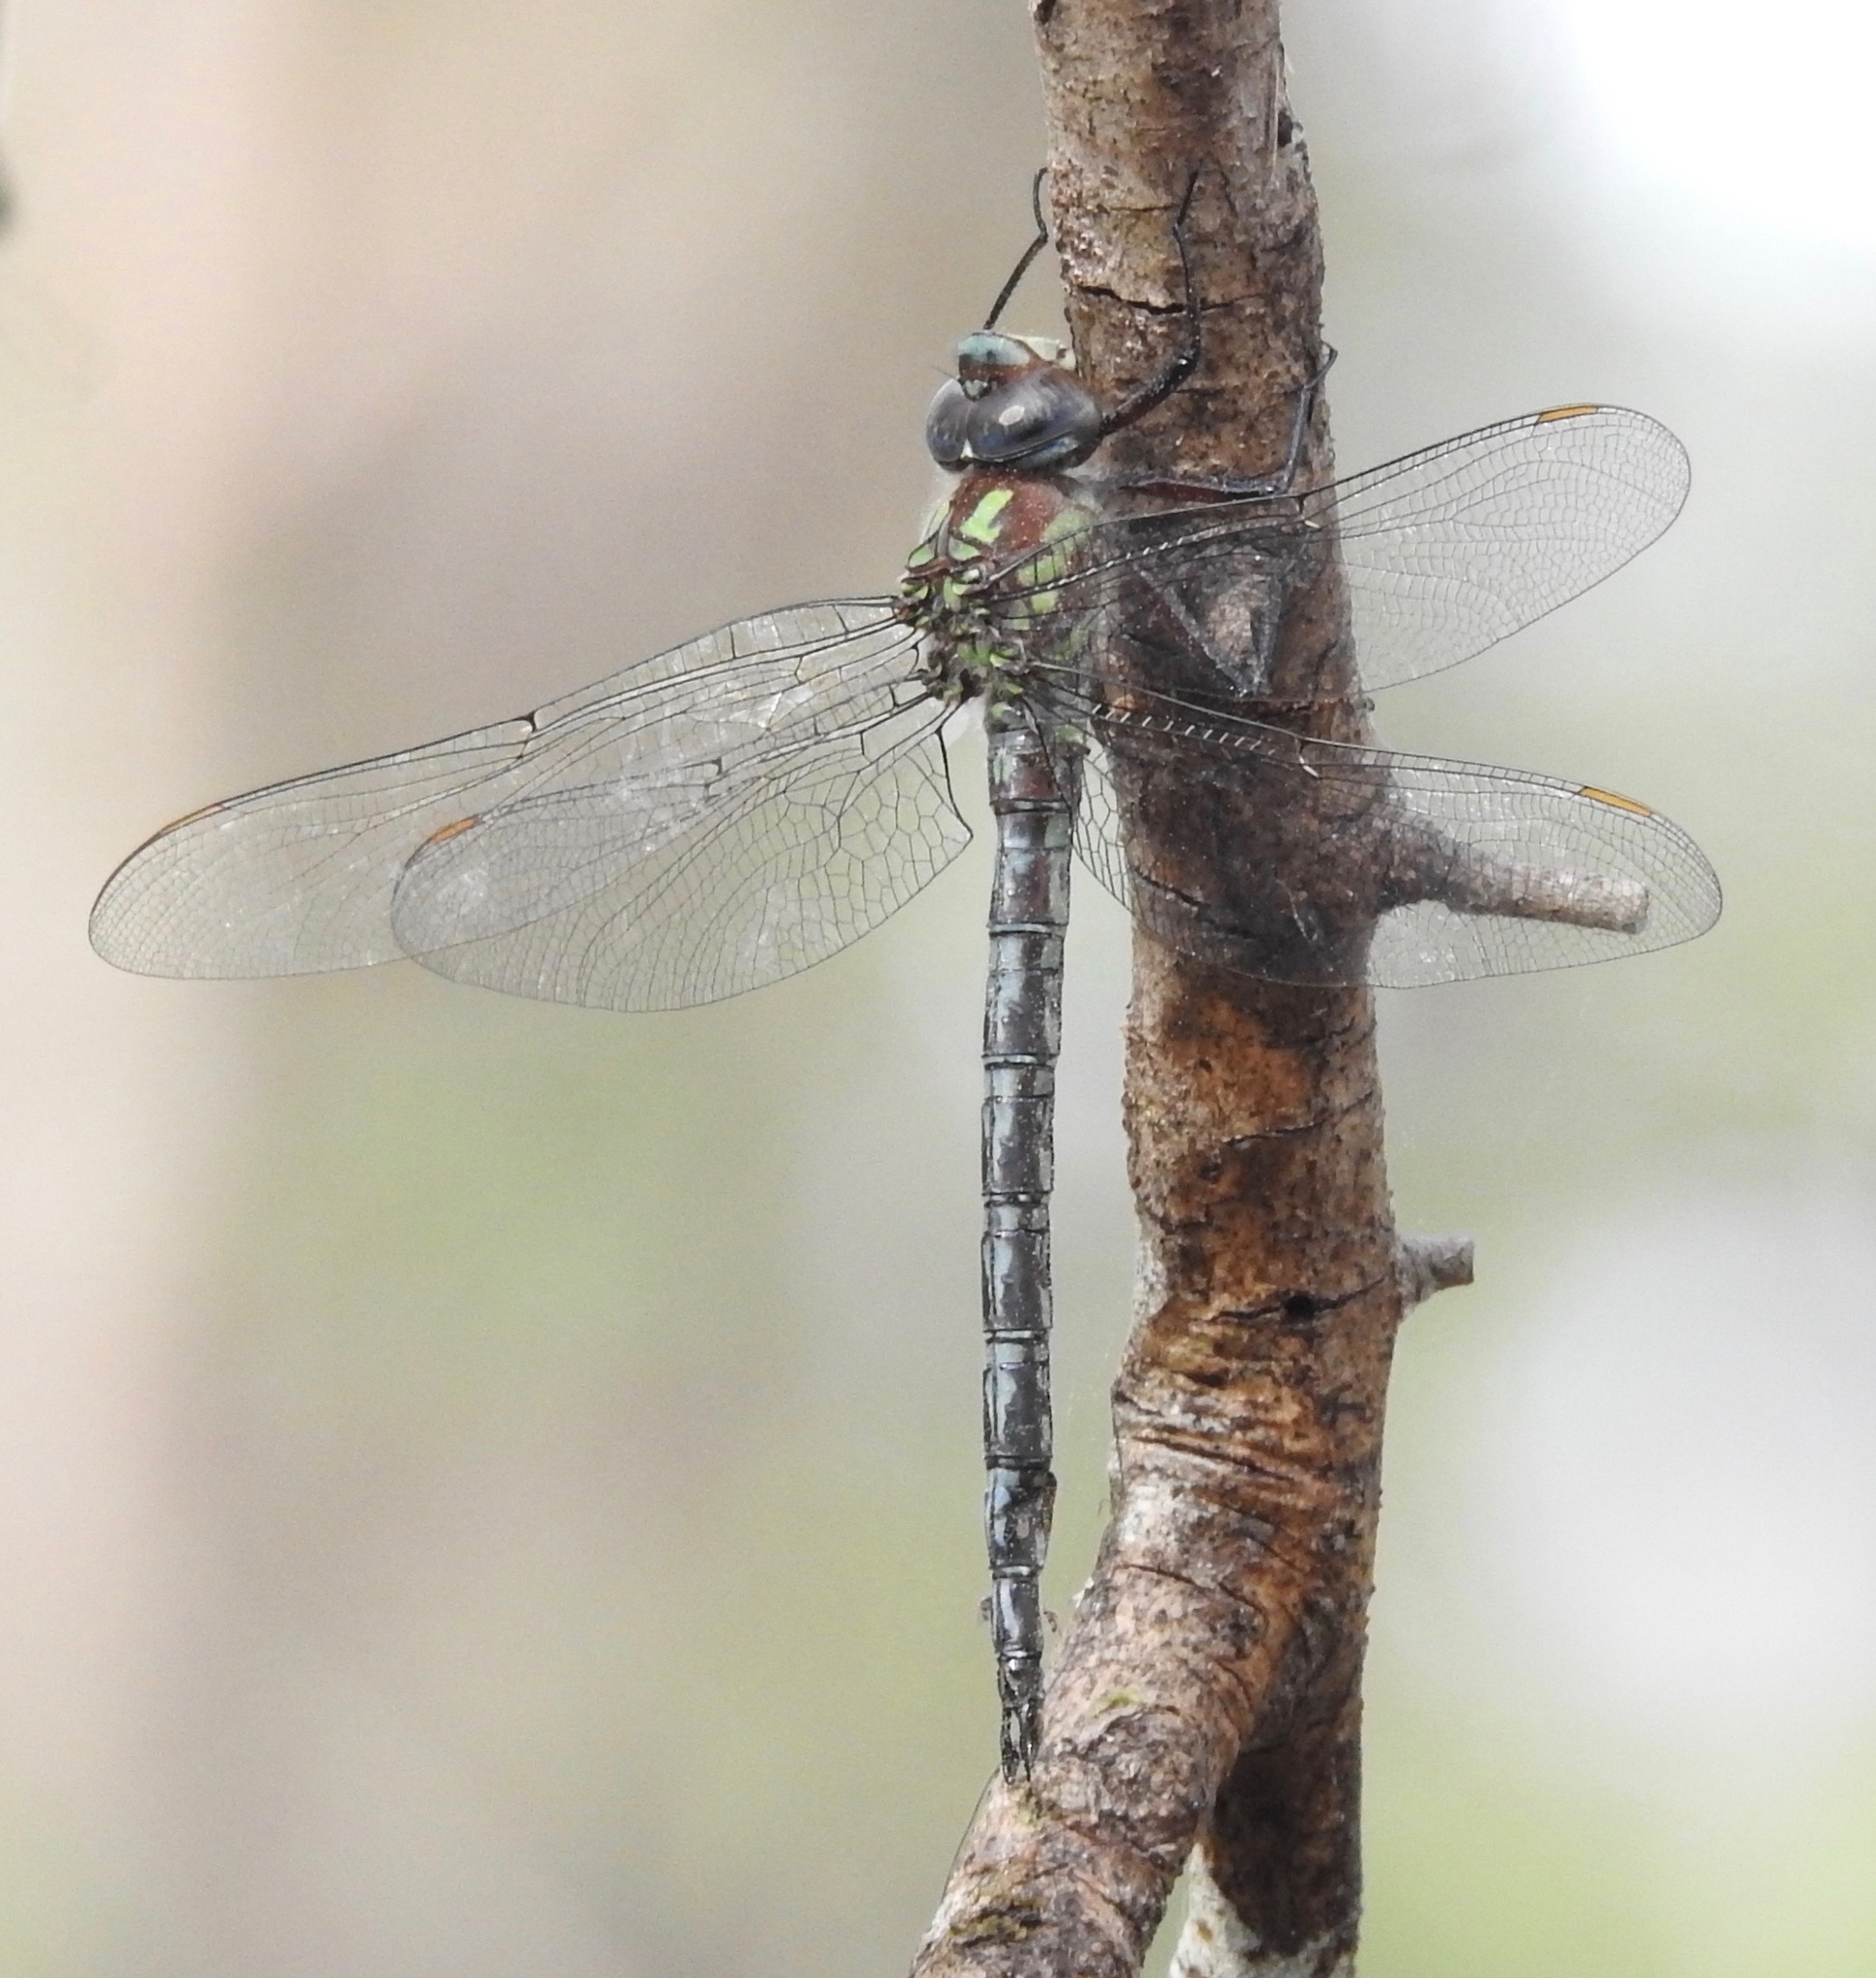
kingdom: Animalia
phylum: Arthropoda
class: Insecta
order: Odonata
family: Aeshnidae
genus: Nasiaeschna
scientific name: Nasiaeschna pentacantha
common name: Cyrano darner
